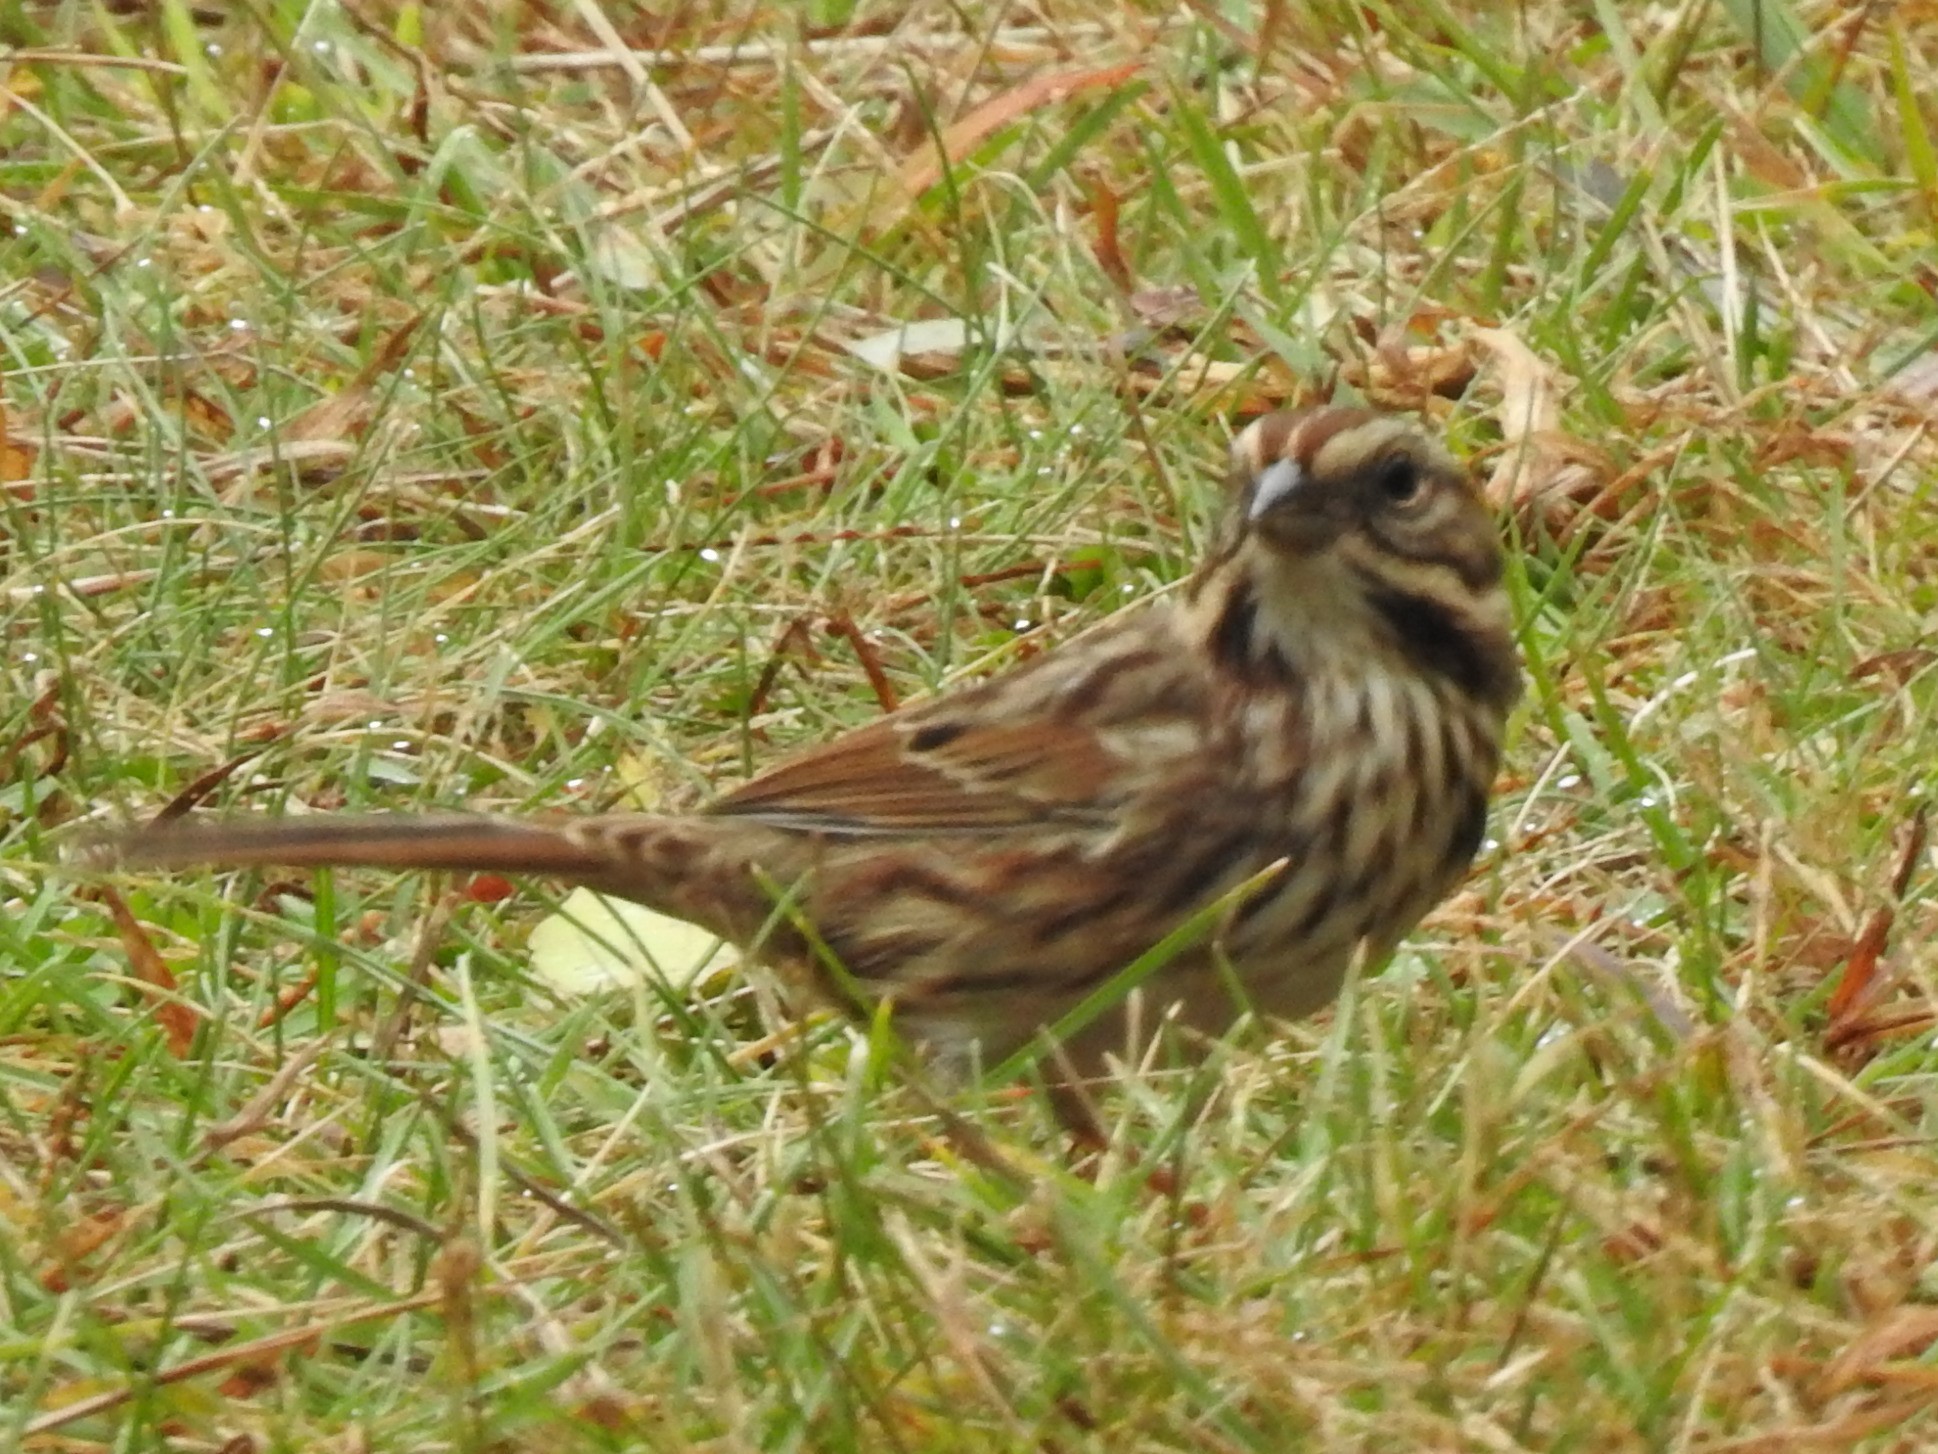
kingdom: Animalia
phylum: Chordata
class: Aves
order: Passeriformes
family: Passerellidae
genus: Melospiza
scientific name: Melospiza melodia
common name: Song sparrow
